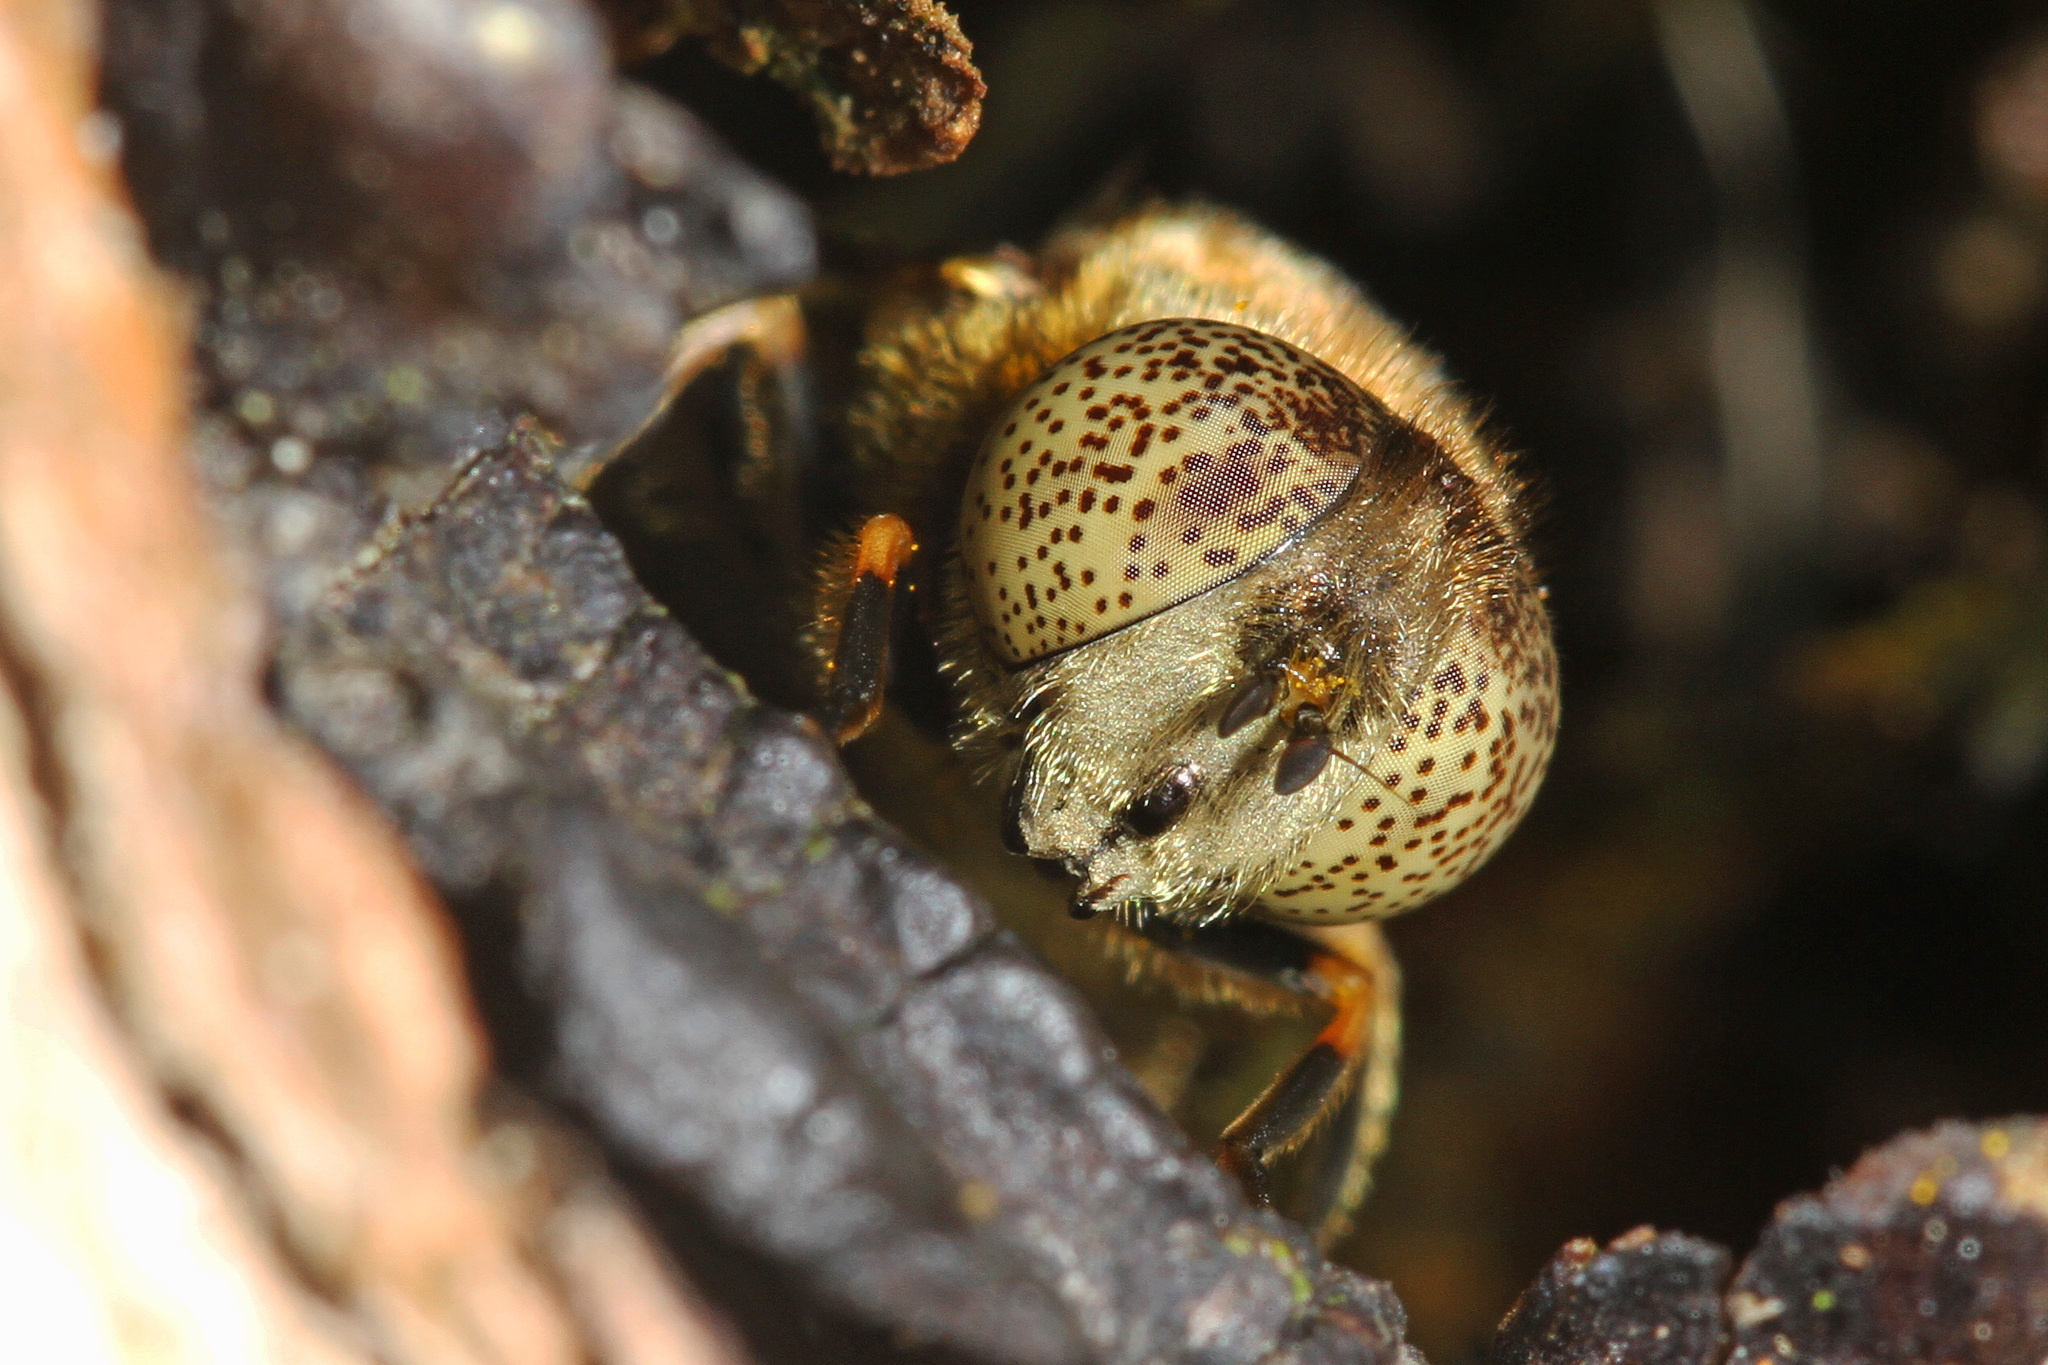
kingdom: Animalia
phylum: Arthropoda
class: Insecta
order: Diptera
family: Syrphidae
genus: Eristalinus
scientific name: Eristalinus aeneus
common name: Syrphid fly
